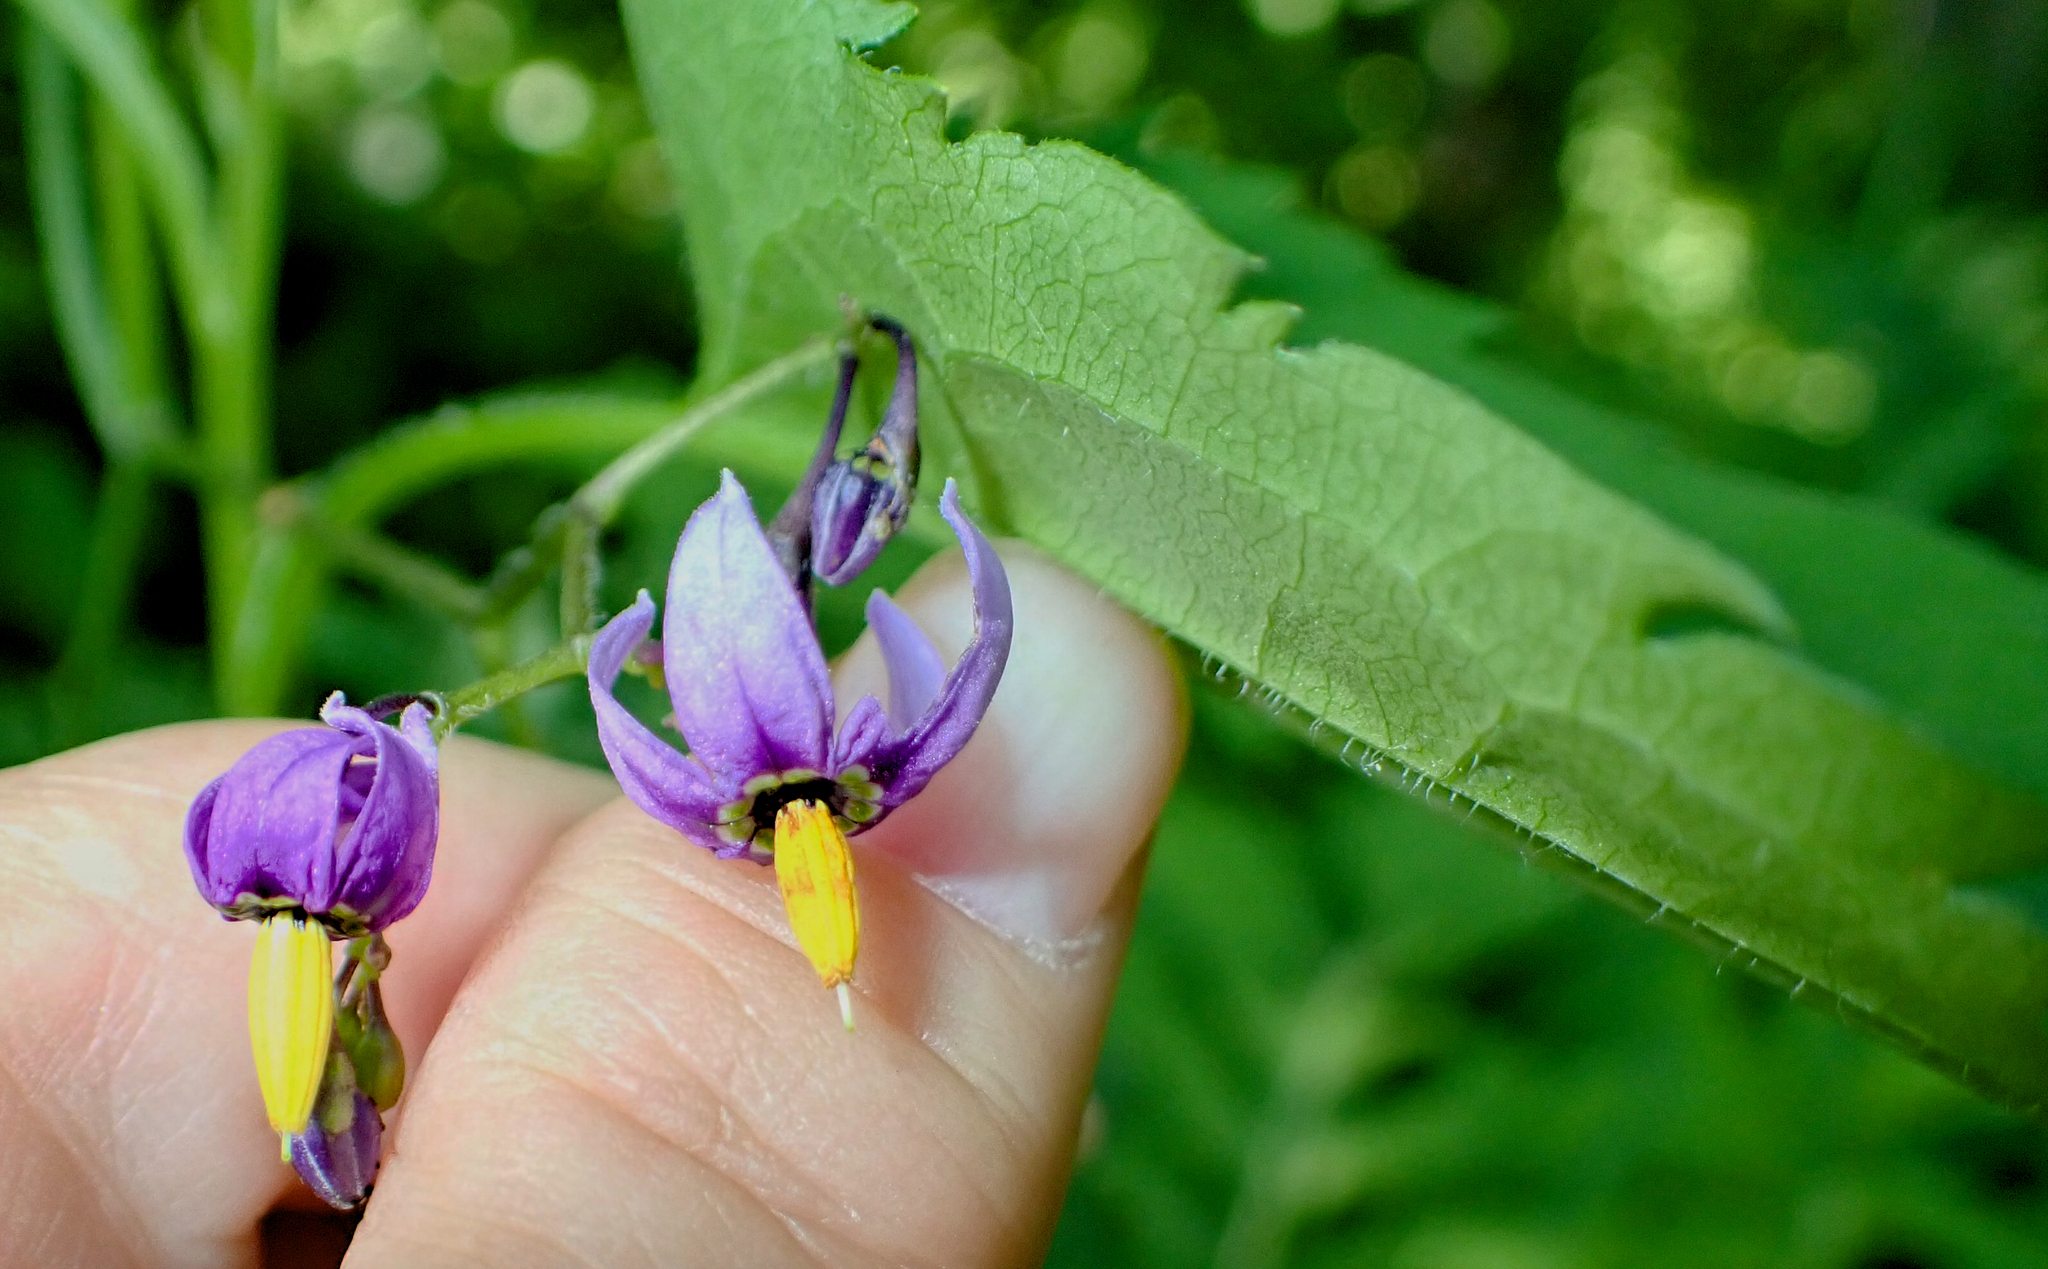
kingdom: Plantae
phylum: Tracheophyta
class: Magnoliopsida
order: Solanales
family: Solanaceae
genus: Solanum
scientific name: Solanum dulcamara
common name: Climbing nightshade
